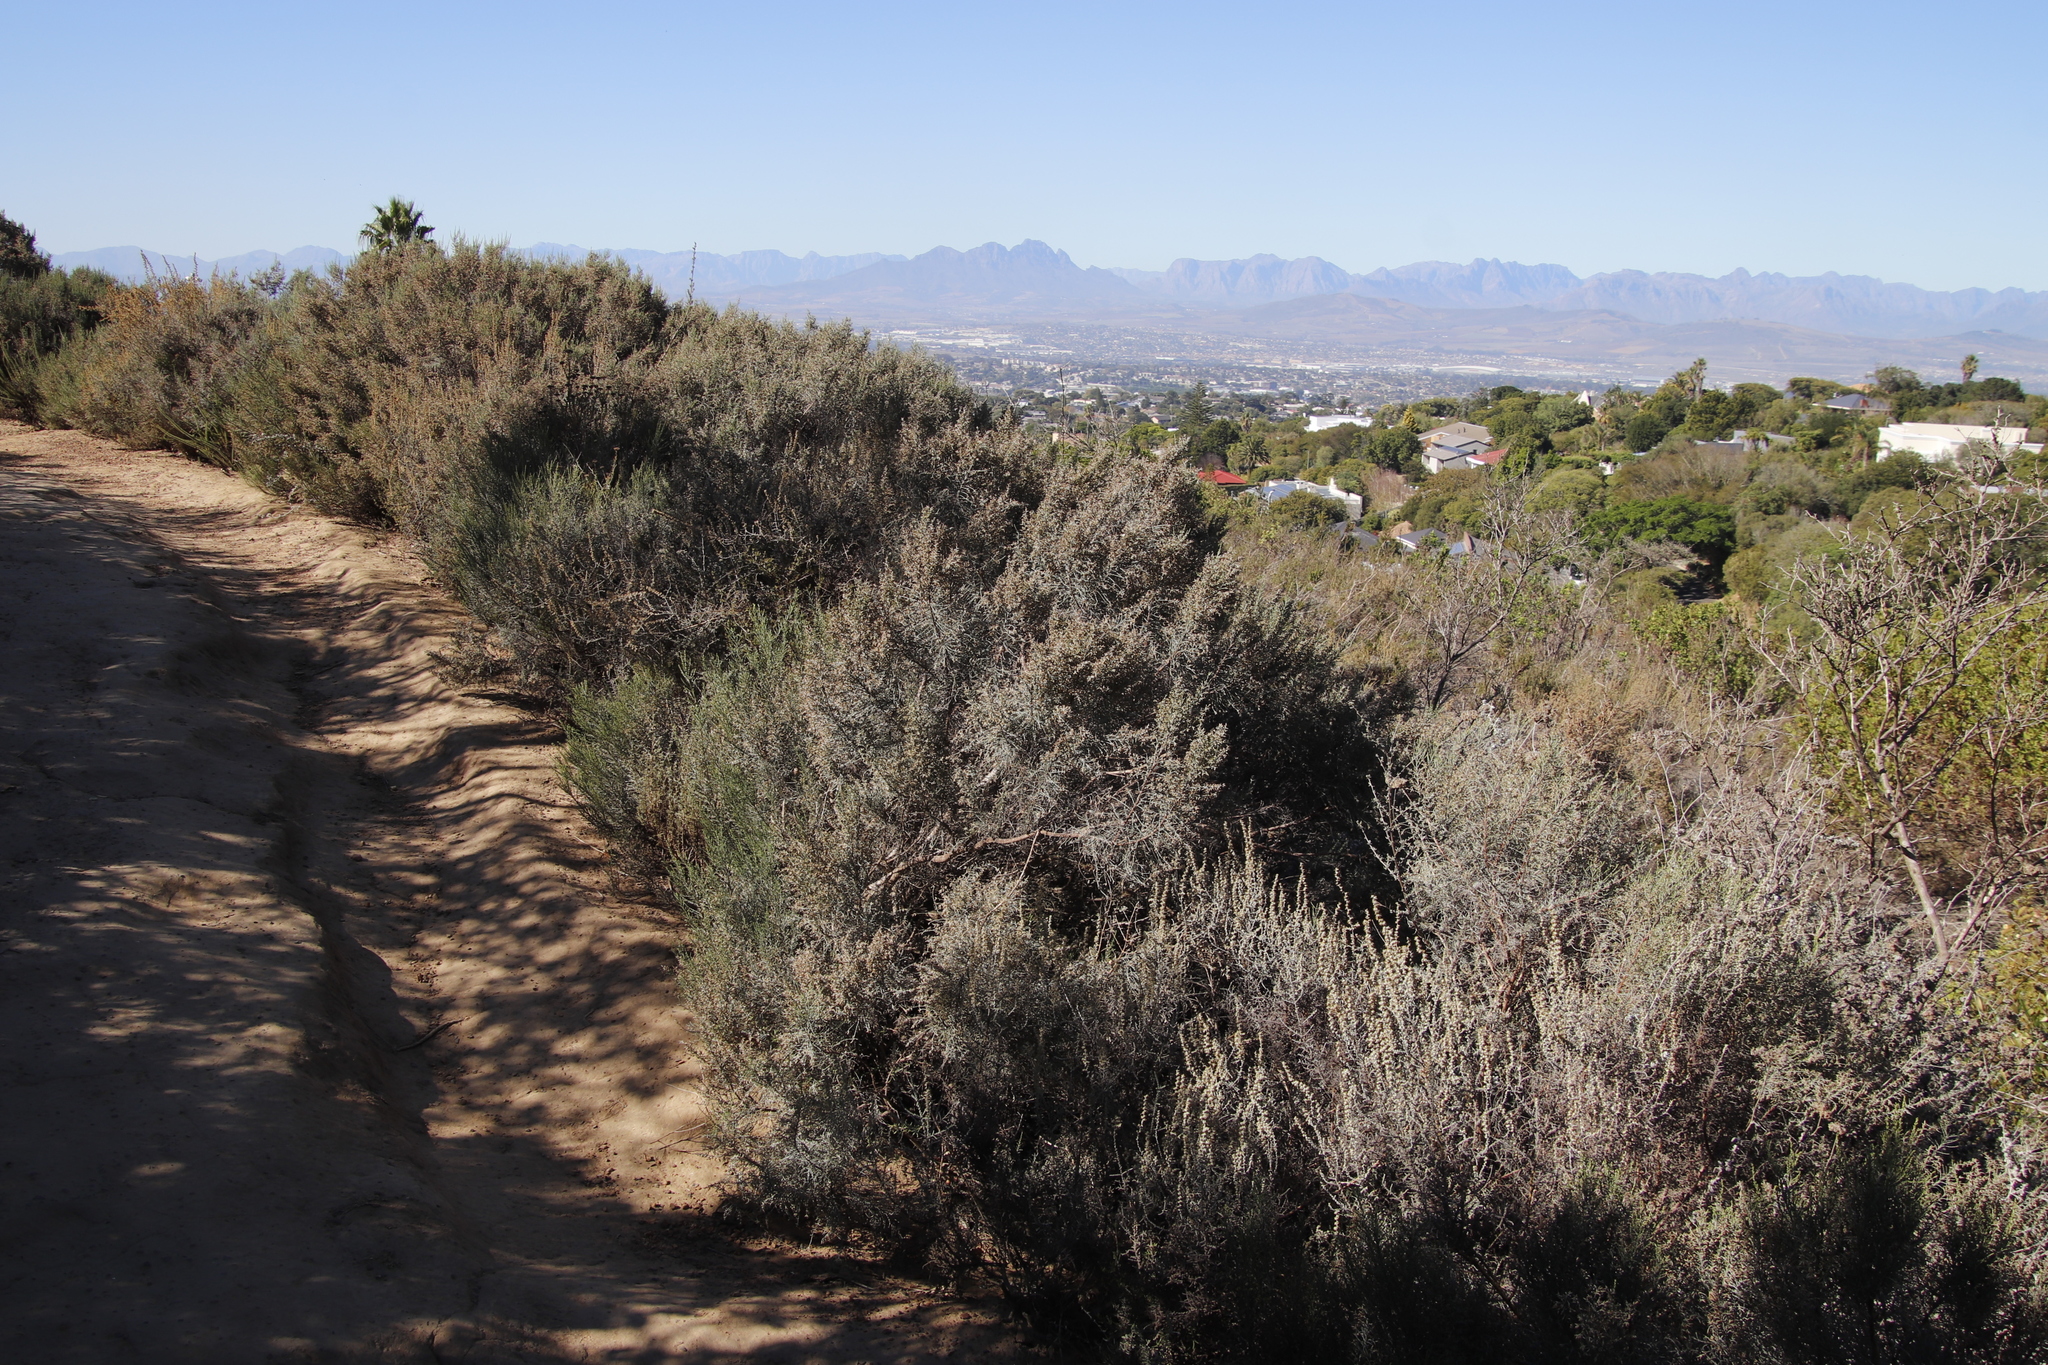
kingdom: Plantae
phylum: Tracheophyta
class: Magnoliopsida
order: Asterales
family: Asteraceae
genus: Dicerothamnus
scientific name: Dicerothamnus rhinocerotis
